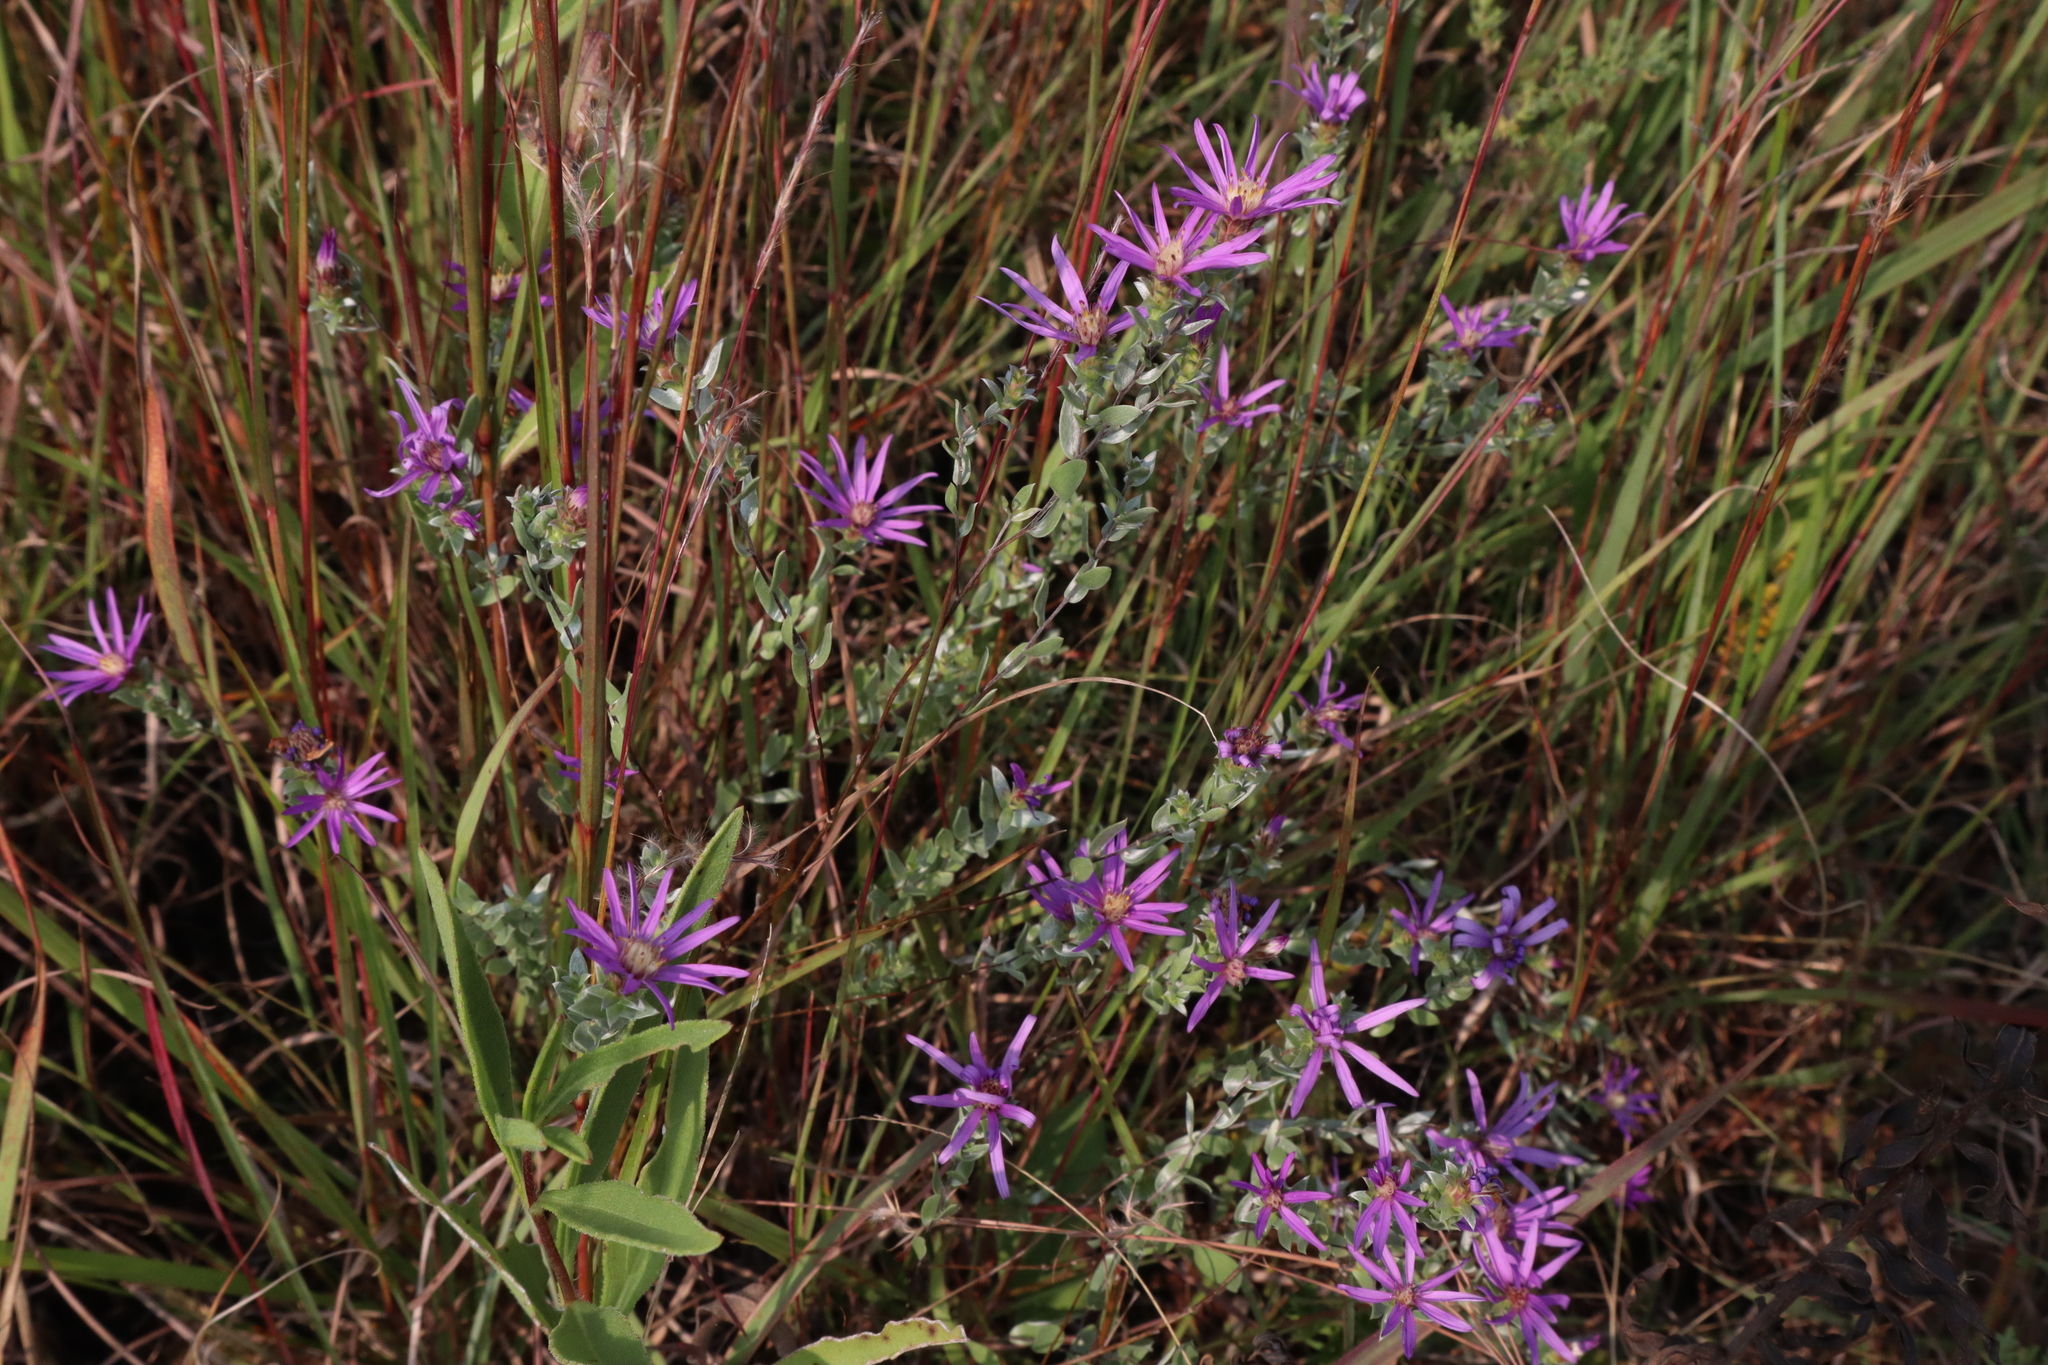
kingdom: Plantae
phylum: Tracheophyta
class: Magnoliopsida
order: Asterales
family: Asteraceae
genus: Symphyotrichum
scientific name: Symphyotrichum sericeum
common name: Silky aster
